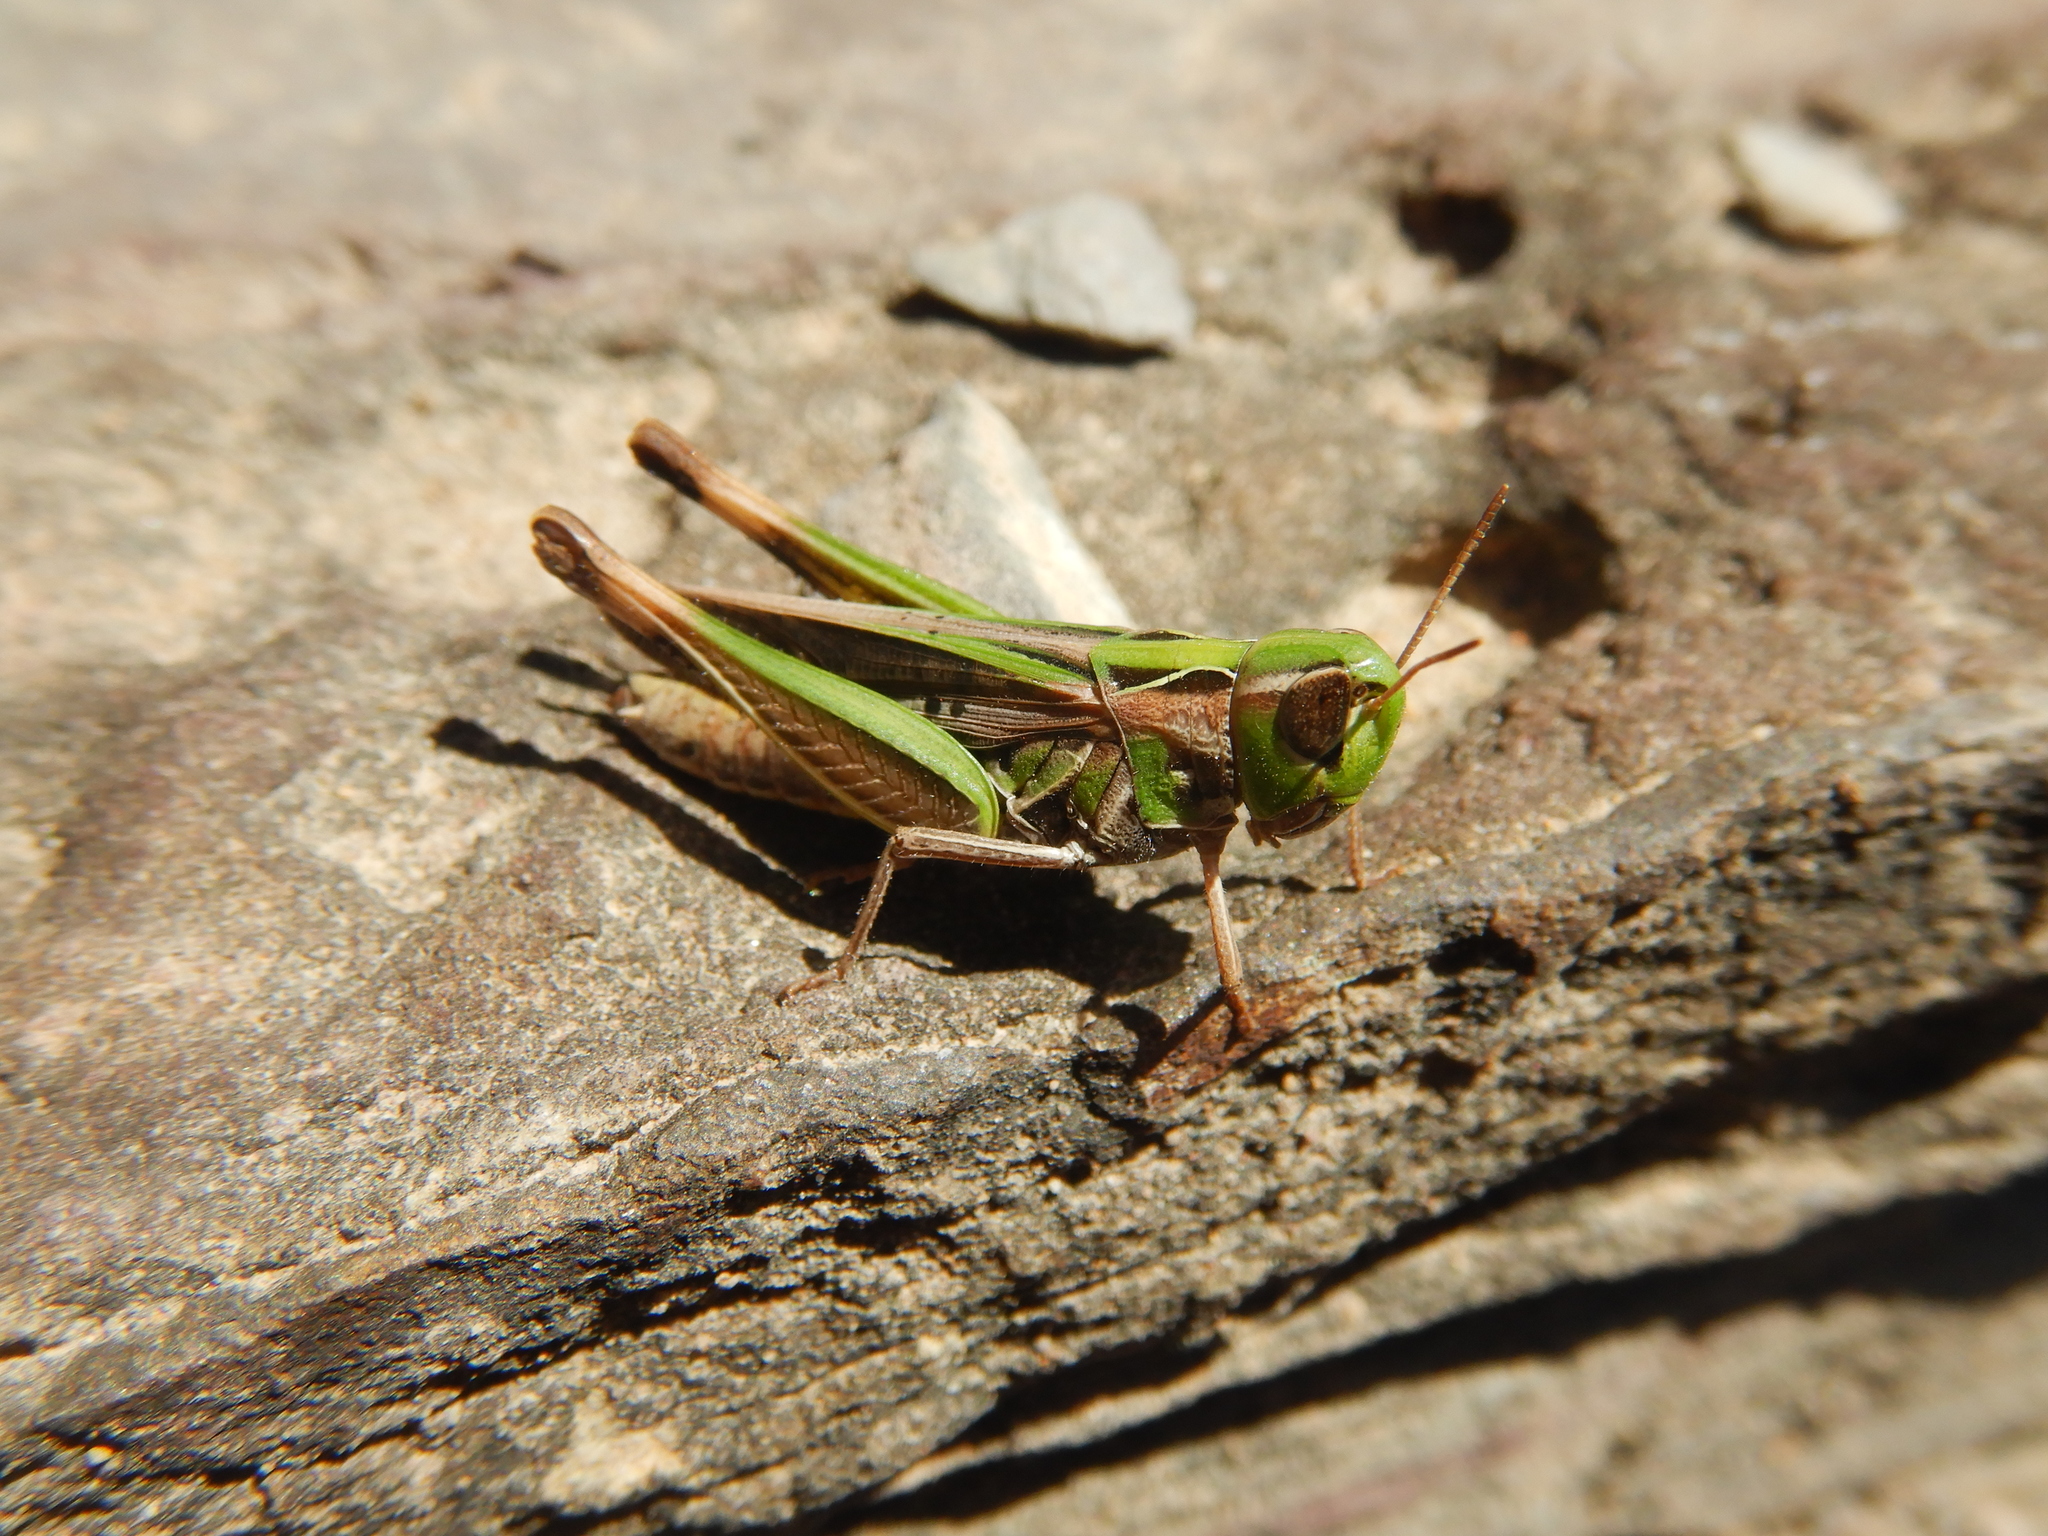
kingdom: Animalia
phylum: Arthropoda
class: Insecta
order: Orthoptera
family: Acrididae
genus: Caledia
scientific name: Caledia captiva
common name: Caledia
